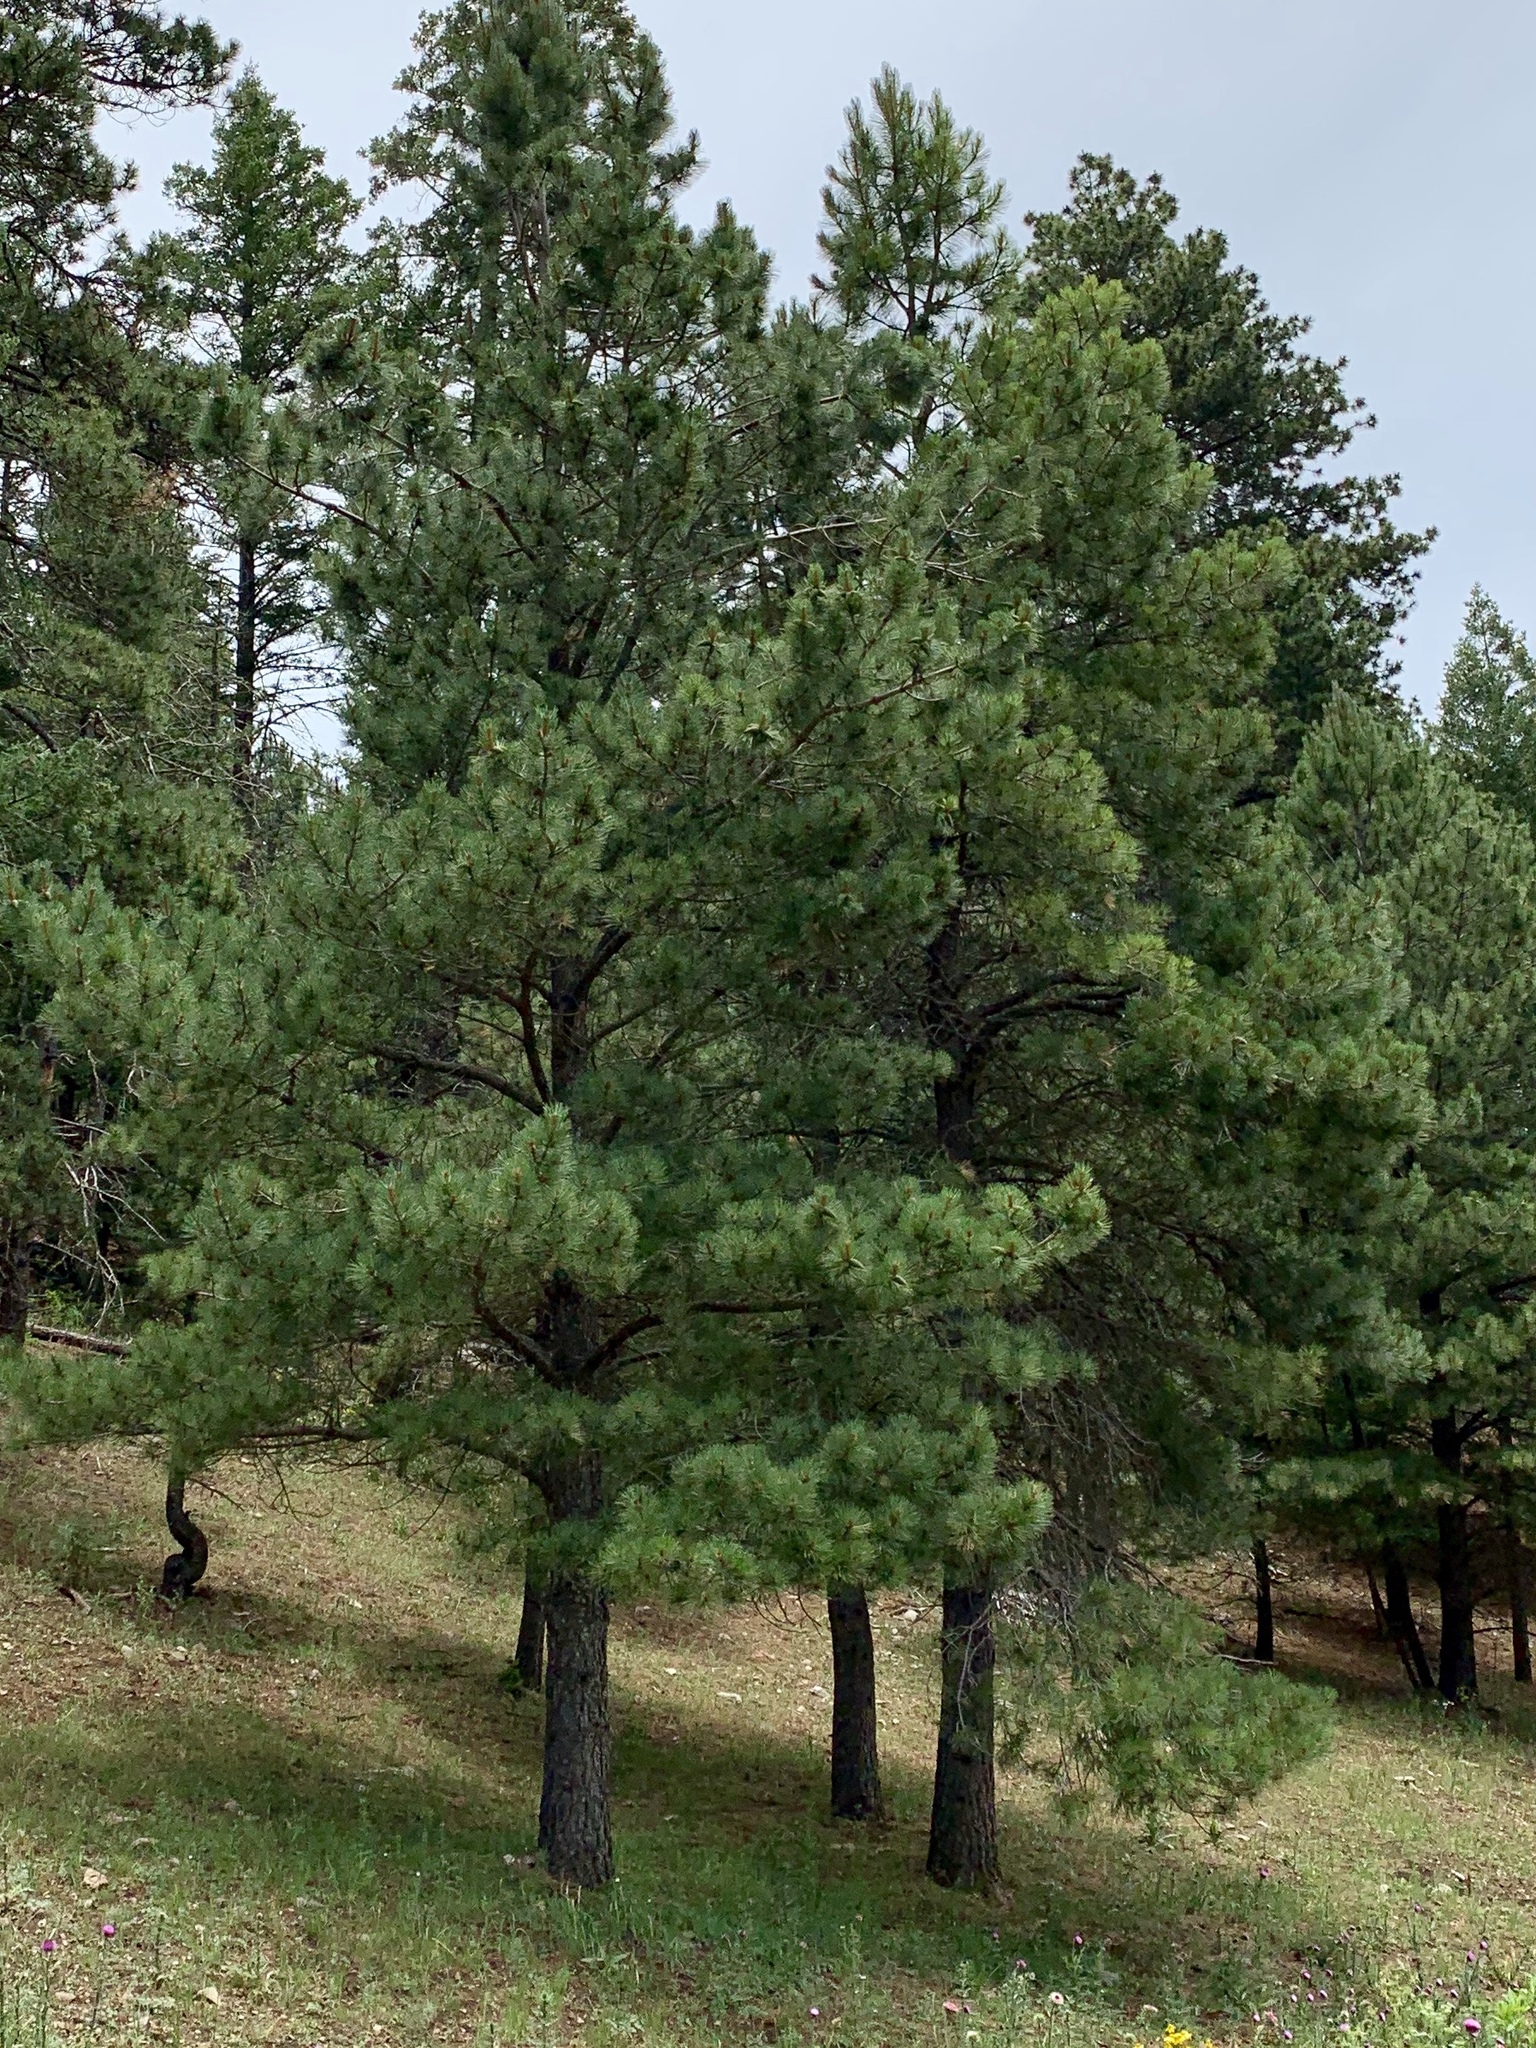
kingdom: Plantae
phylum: Tracheophyta
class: Pinopsida
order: Pinales
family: Pinaceae
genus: Pinus
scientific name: Pinus ponderosa
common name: Western yellow-pine
